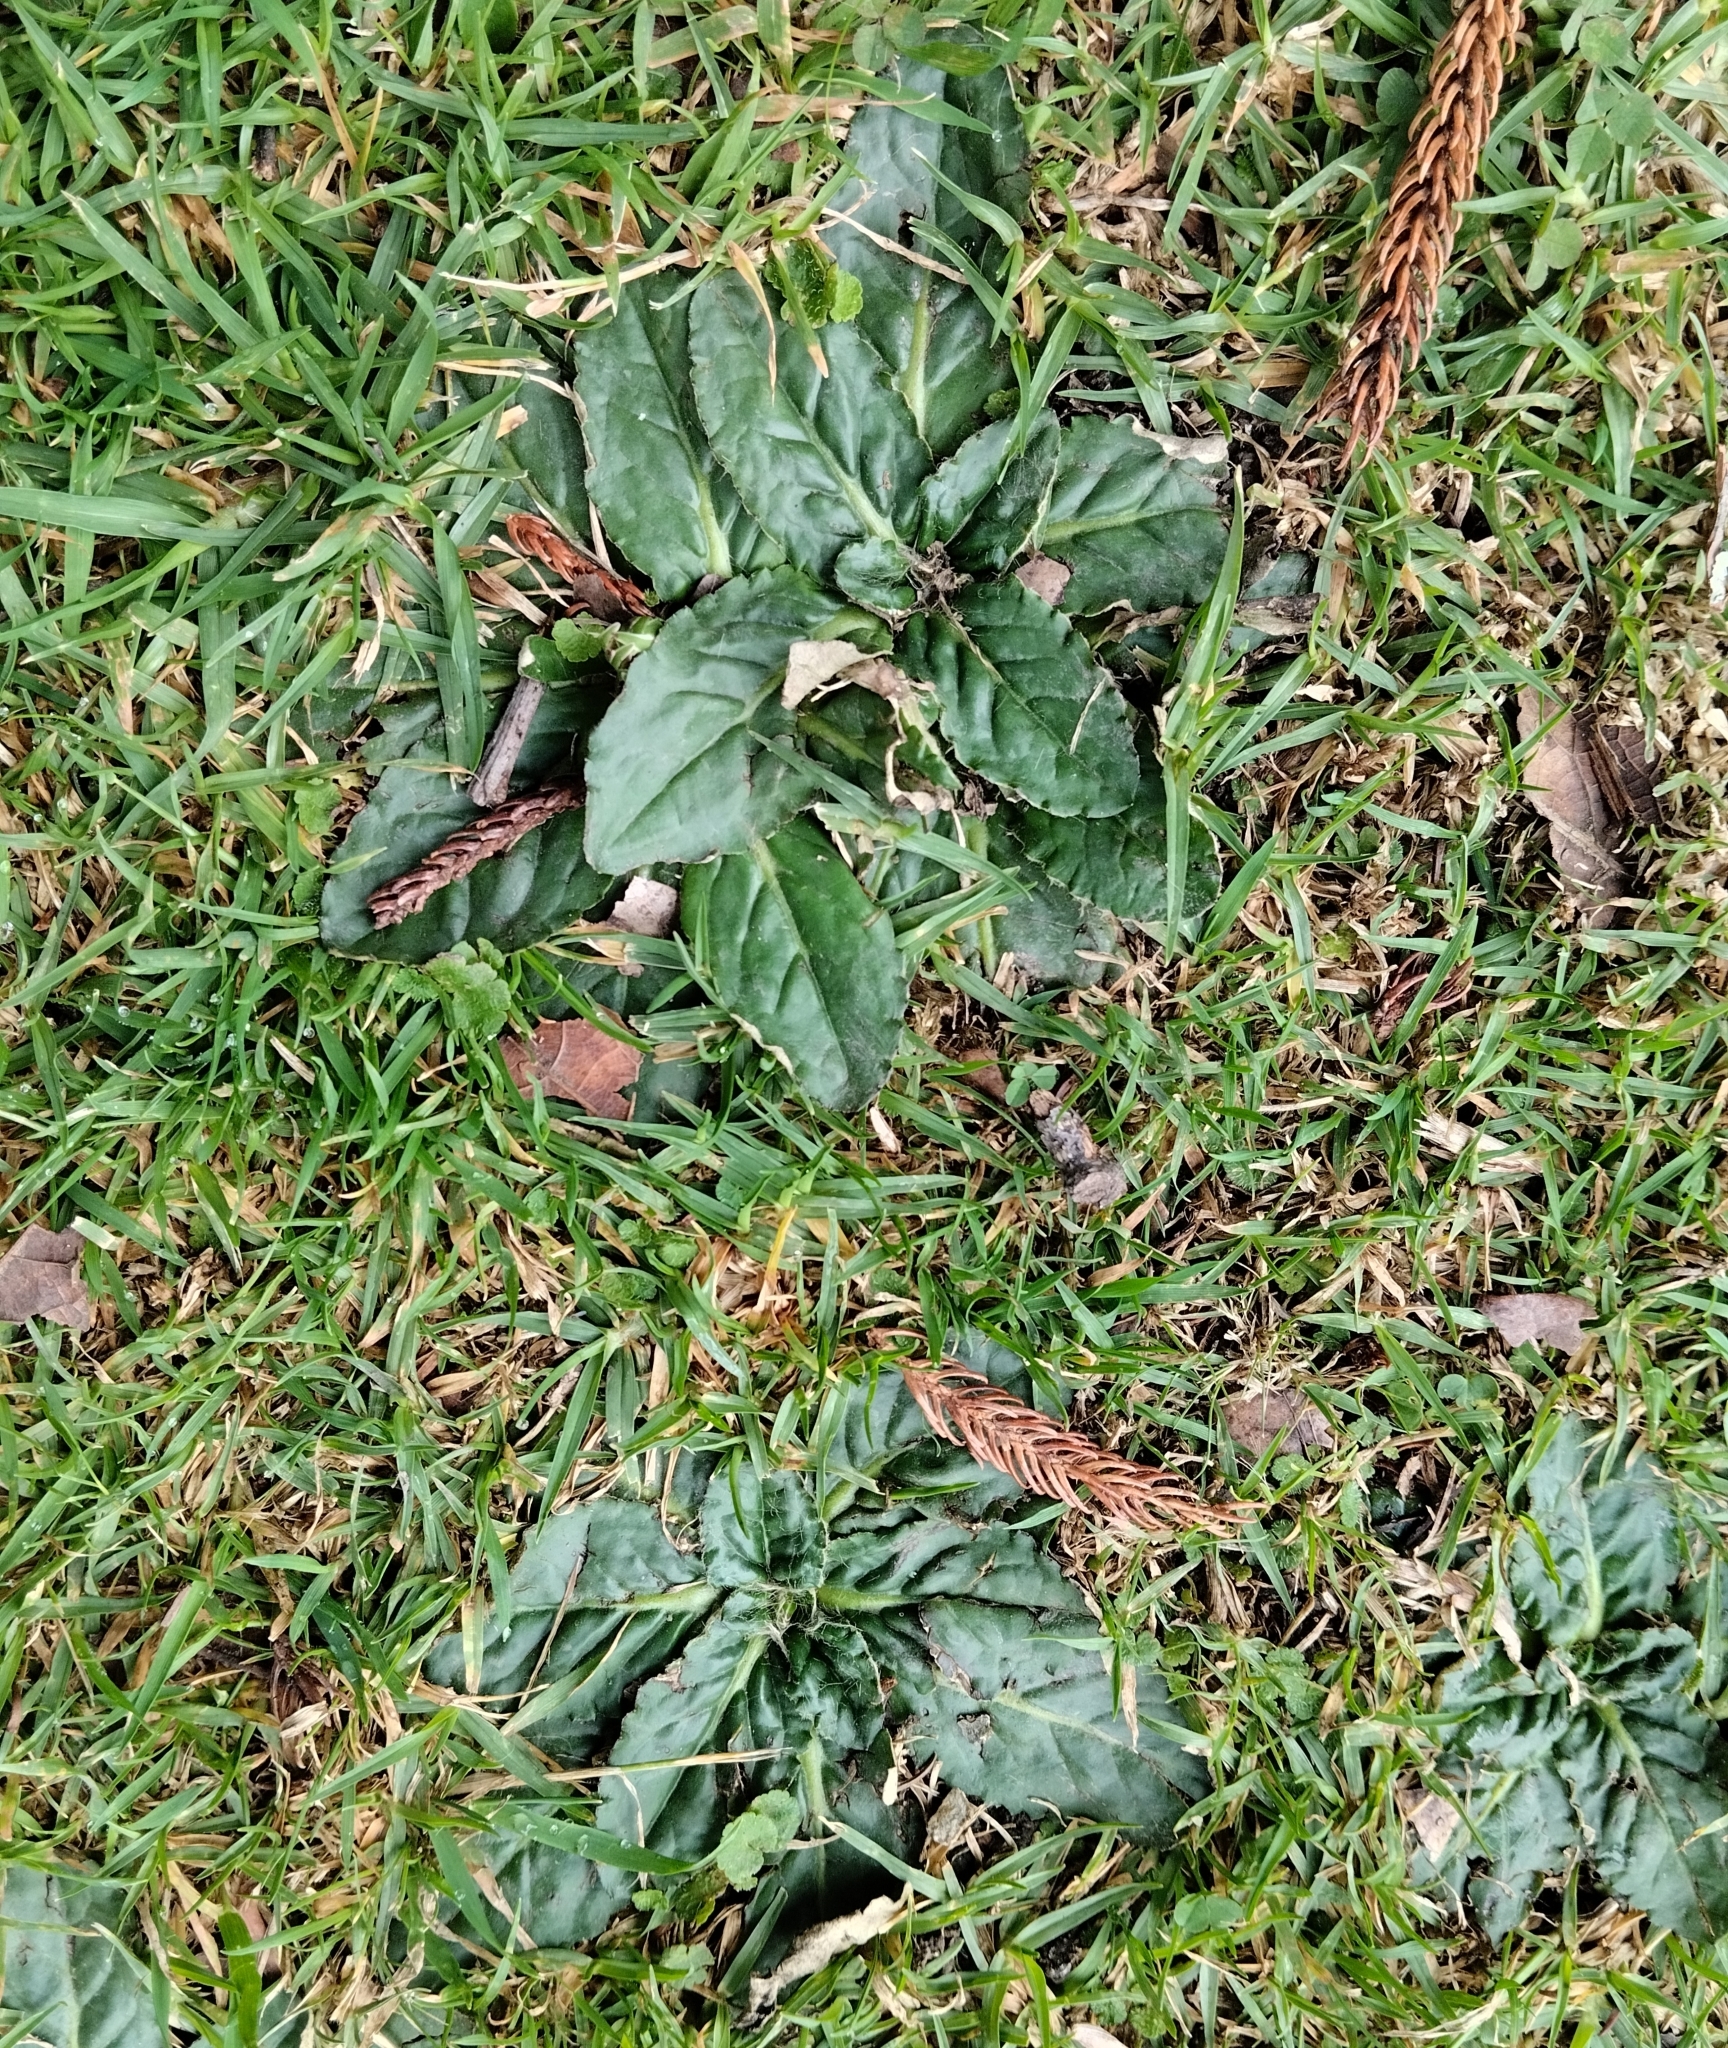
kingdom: Plantae
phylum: Tracheophyta
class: Magnoliopsida
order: Asterales
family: Asteraceae
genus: Chaptalia
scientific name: Chaptalia exscapa
